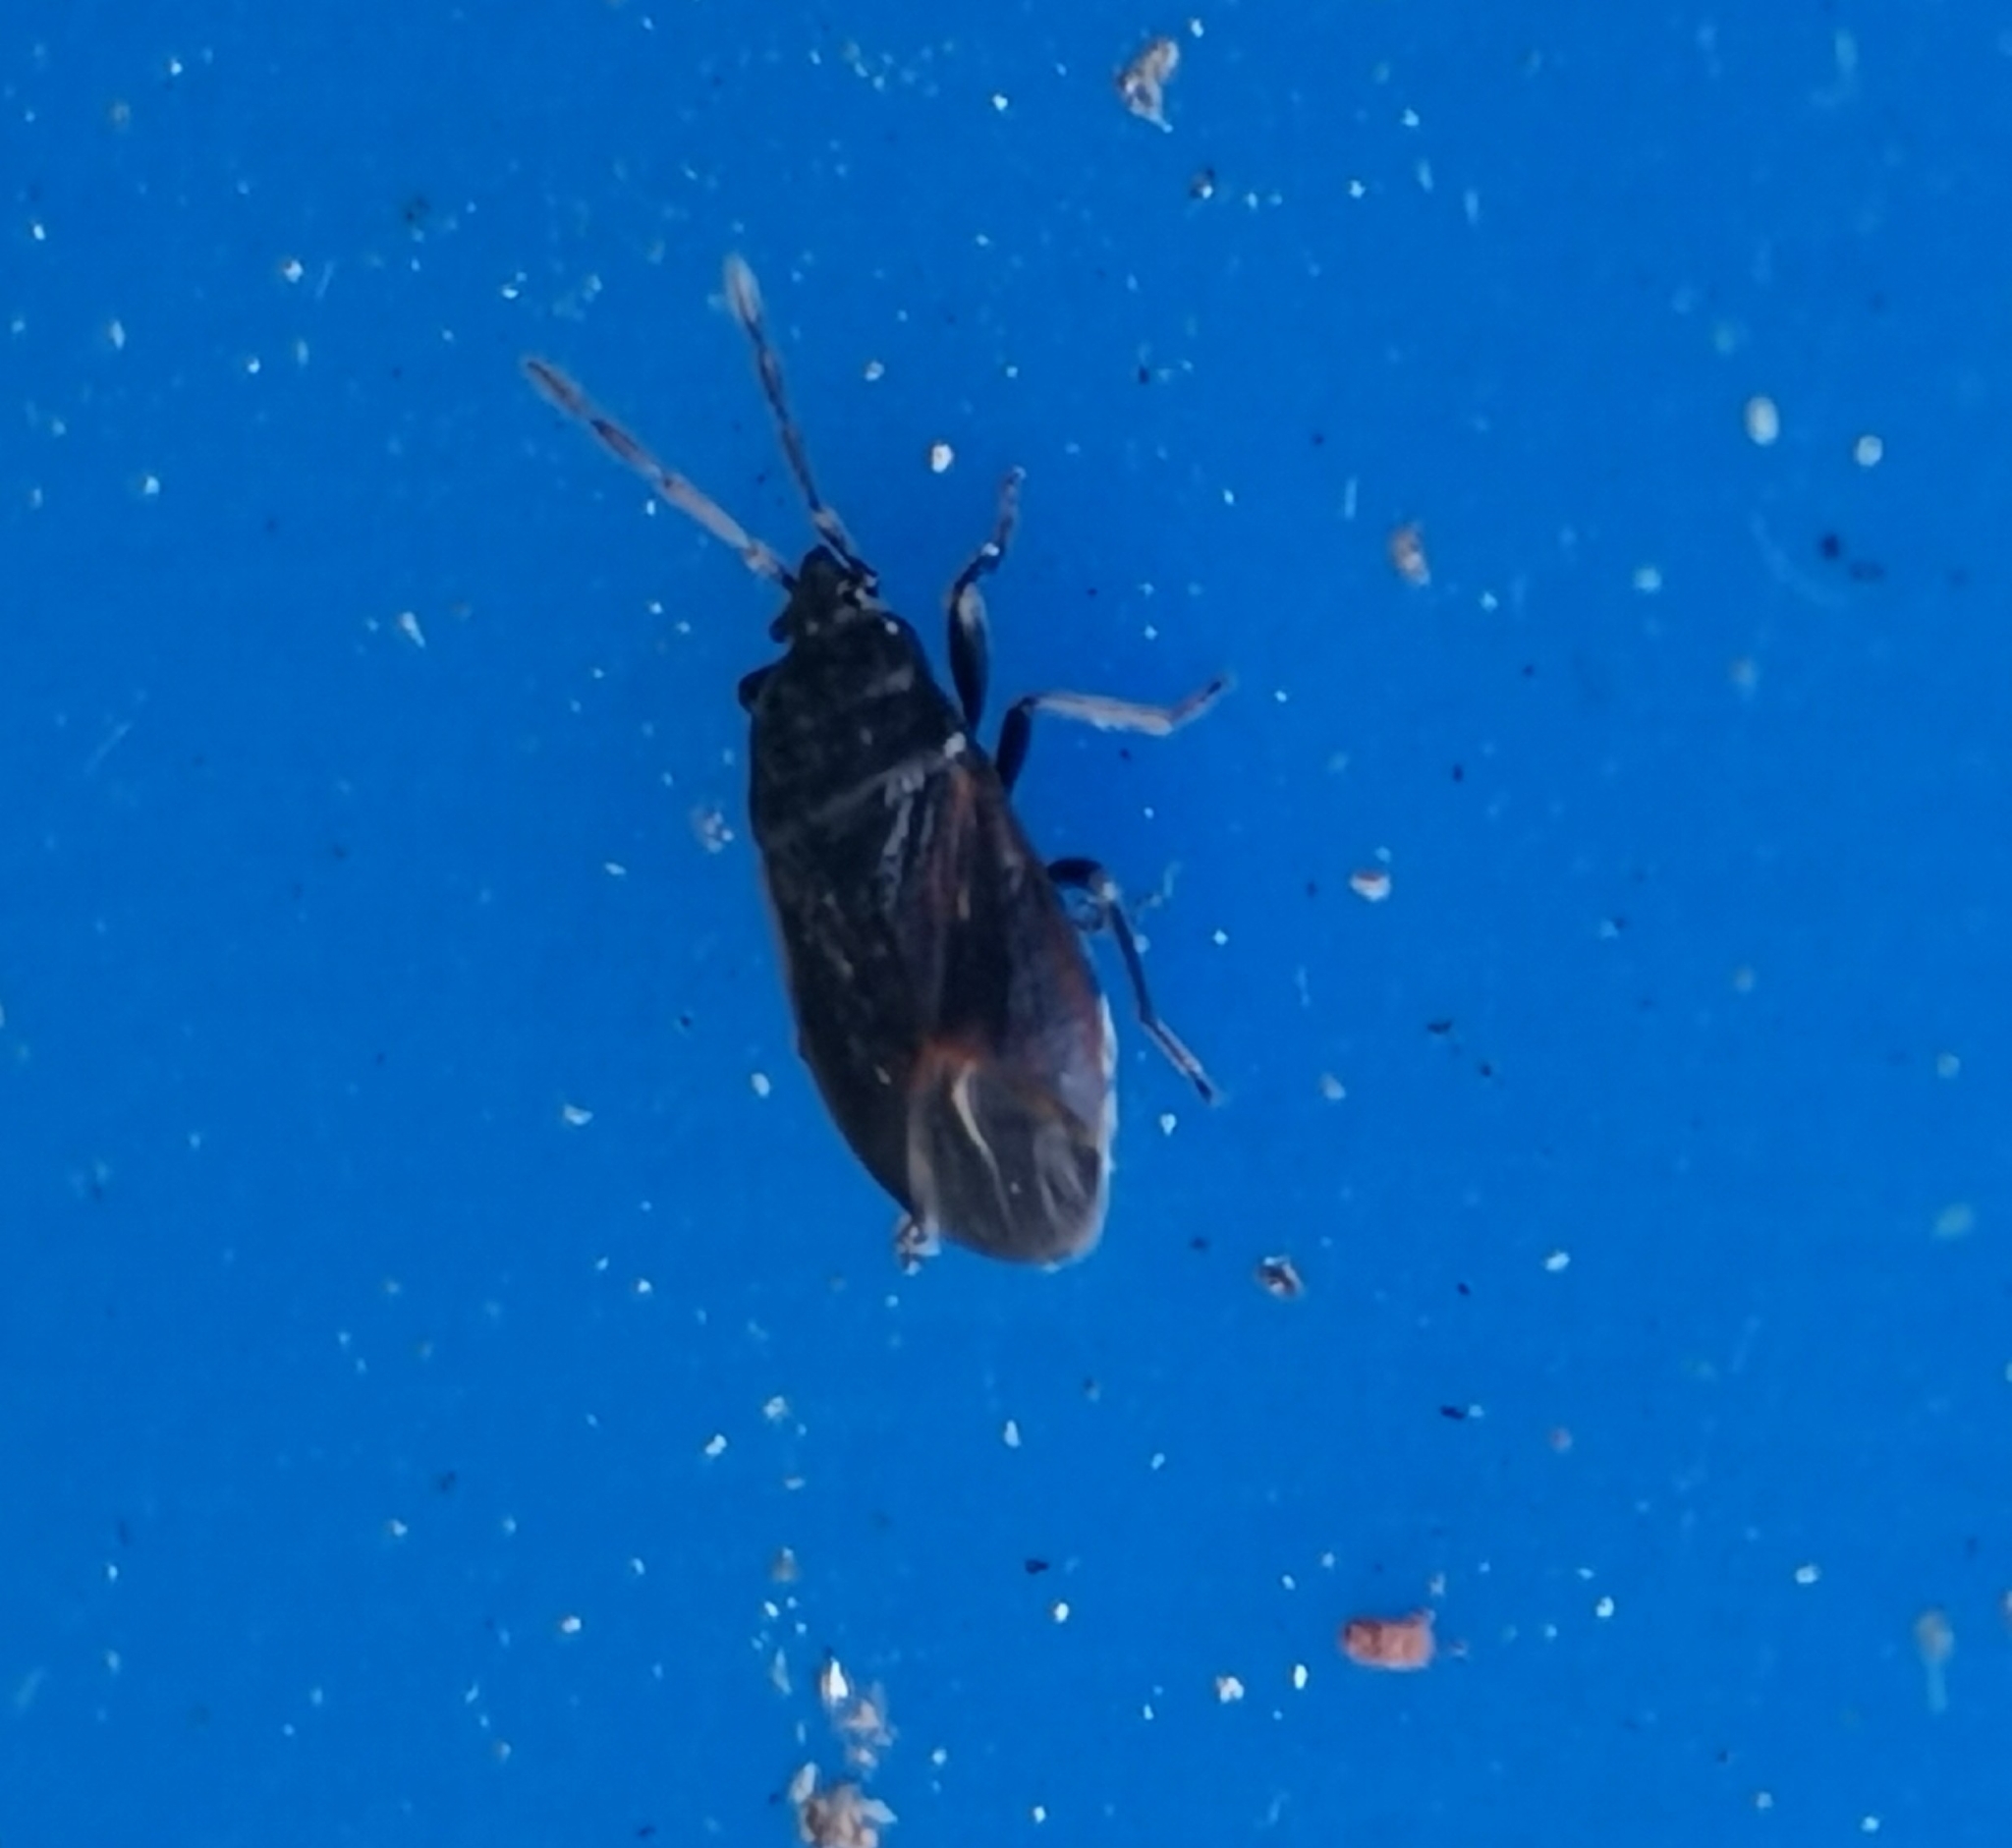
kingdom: Animalia
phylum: Arthropoda
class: Insecta
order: Hemiptera
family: Rhyparochromidae
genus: Drymus
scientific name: Drymus ryeii
